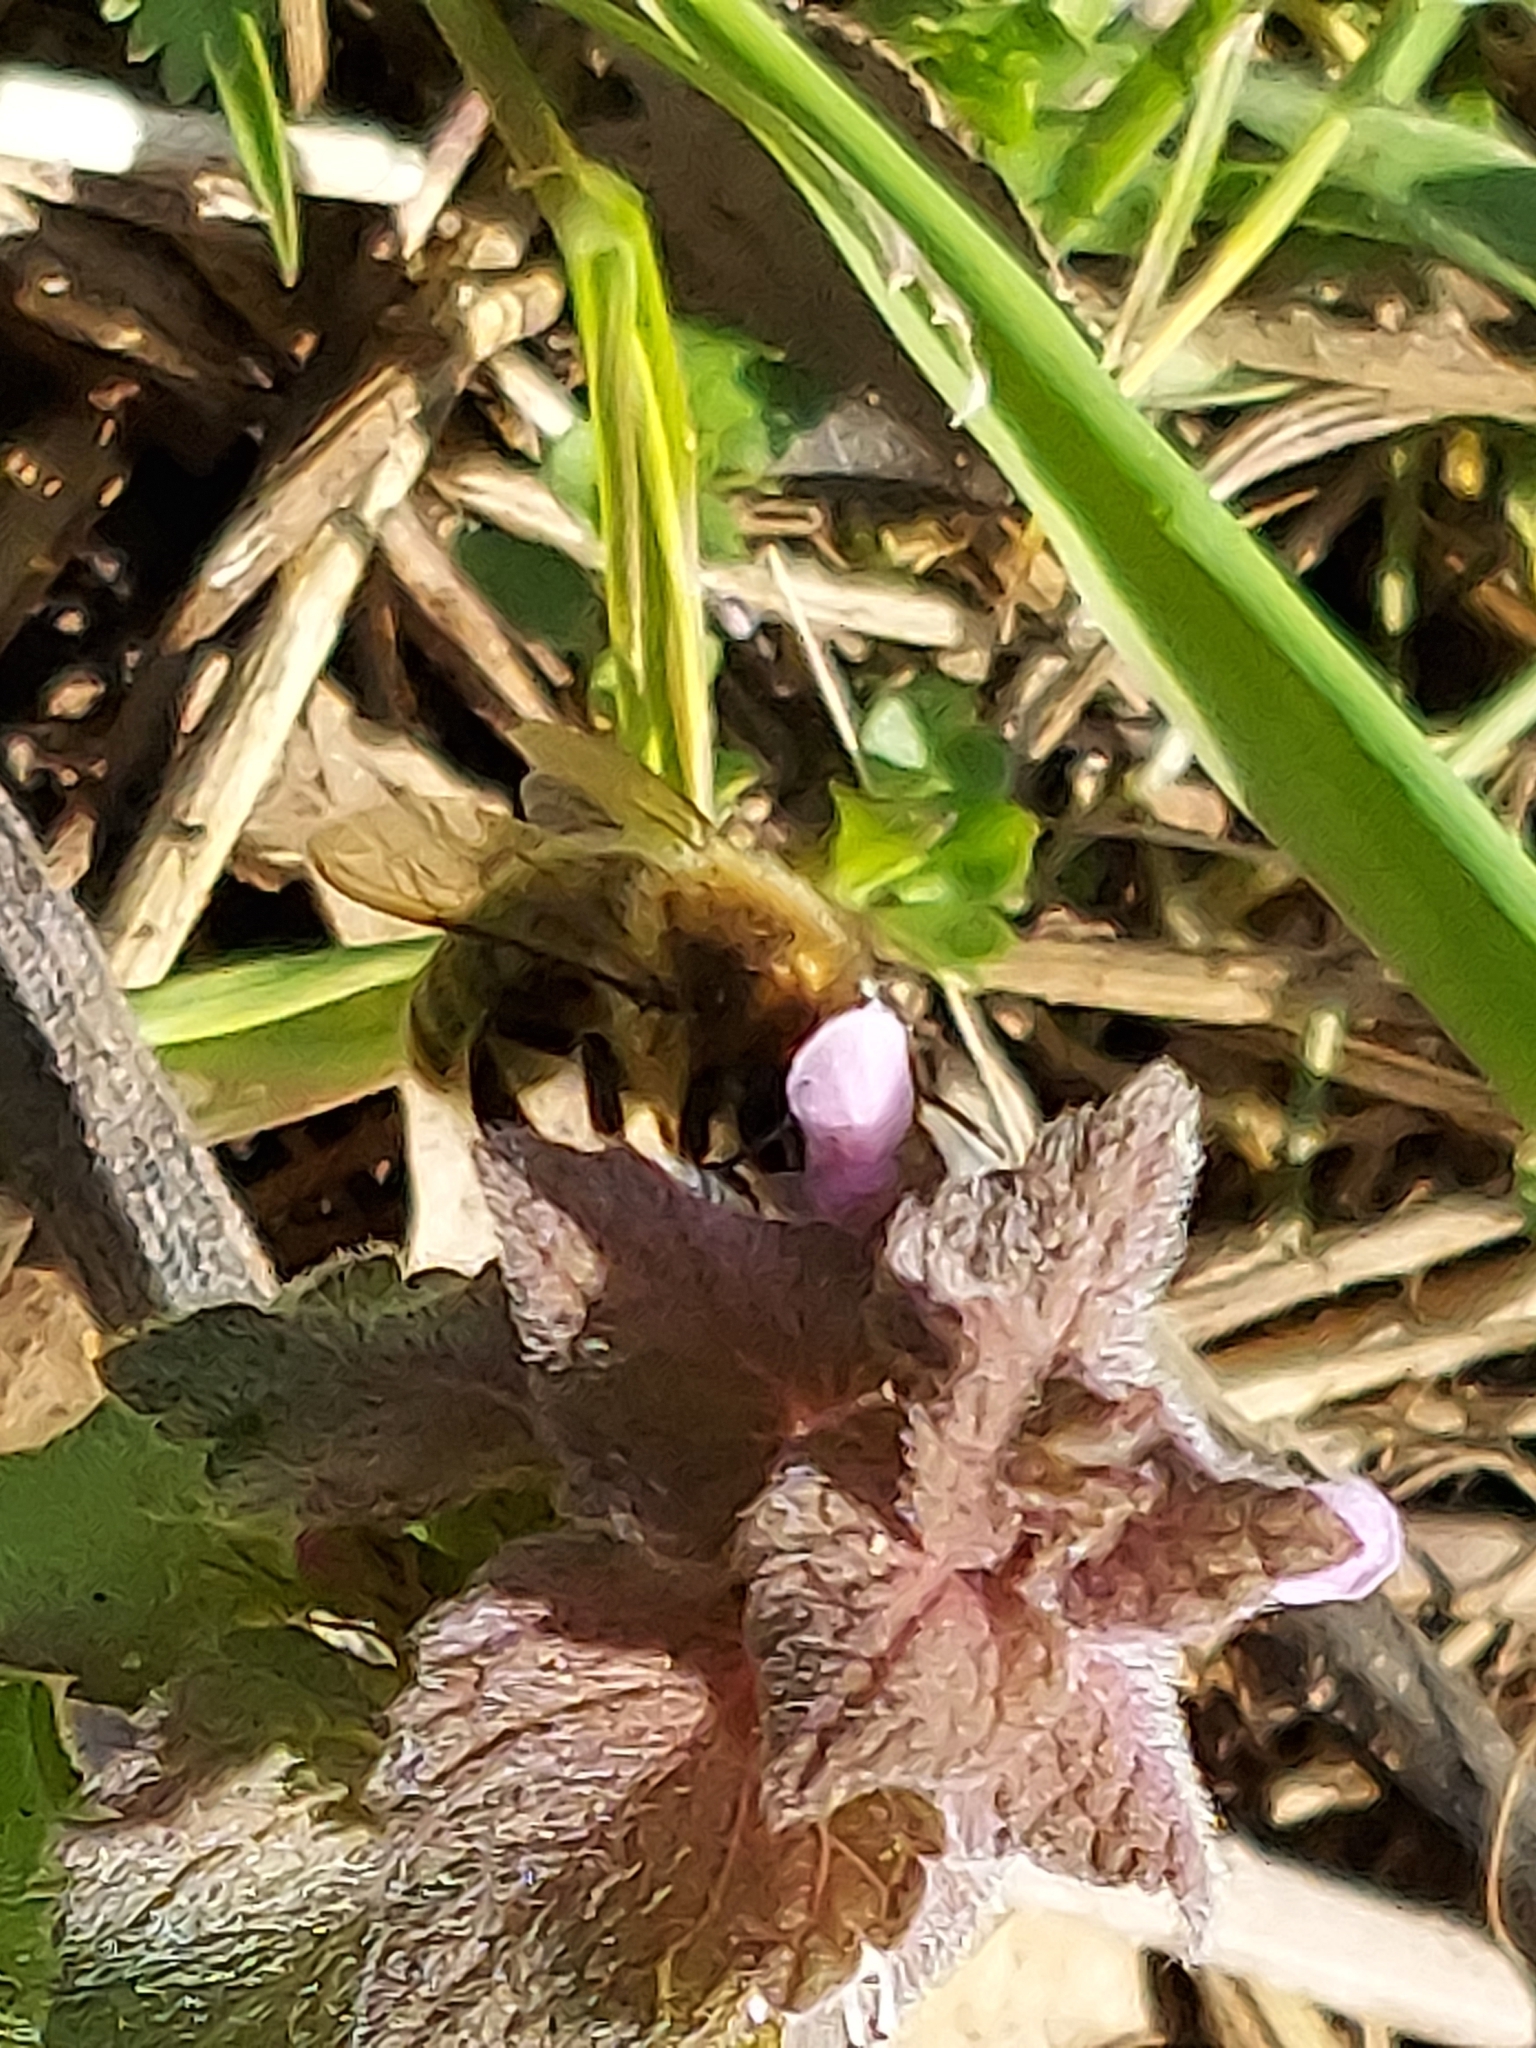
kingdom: Animalia
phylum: Arthropoda
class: Insecta
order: Hymenoptera
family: Apidae
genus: Apis
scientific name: Apis mellifera
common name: Honey bee
